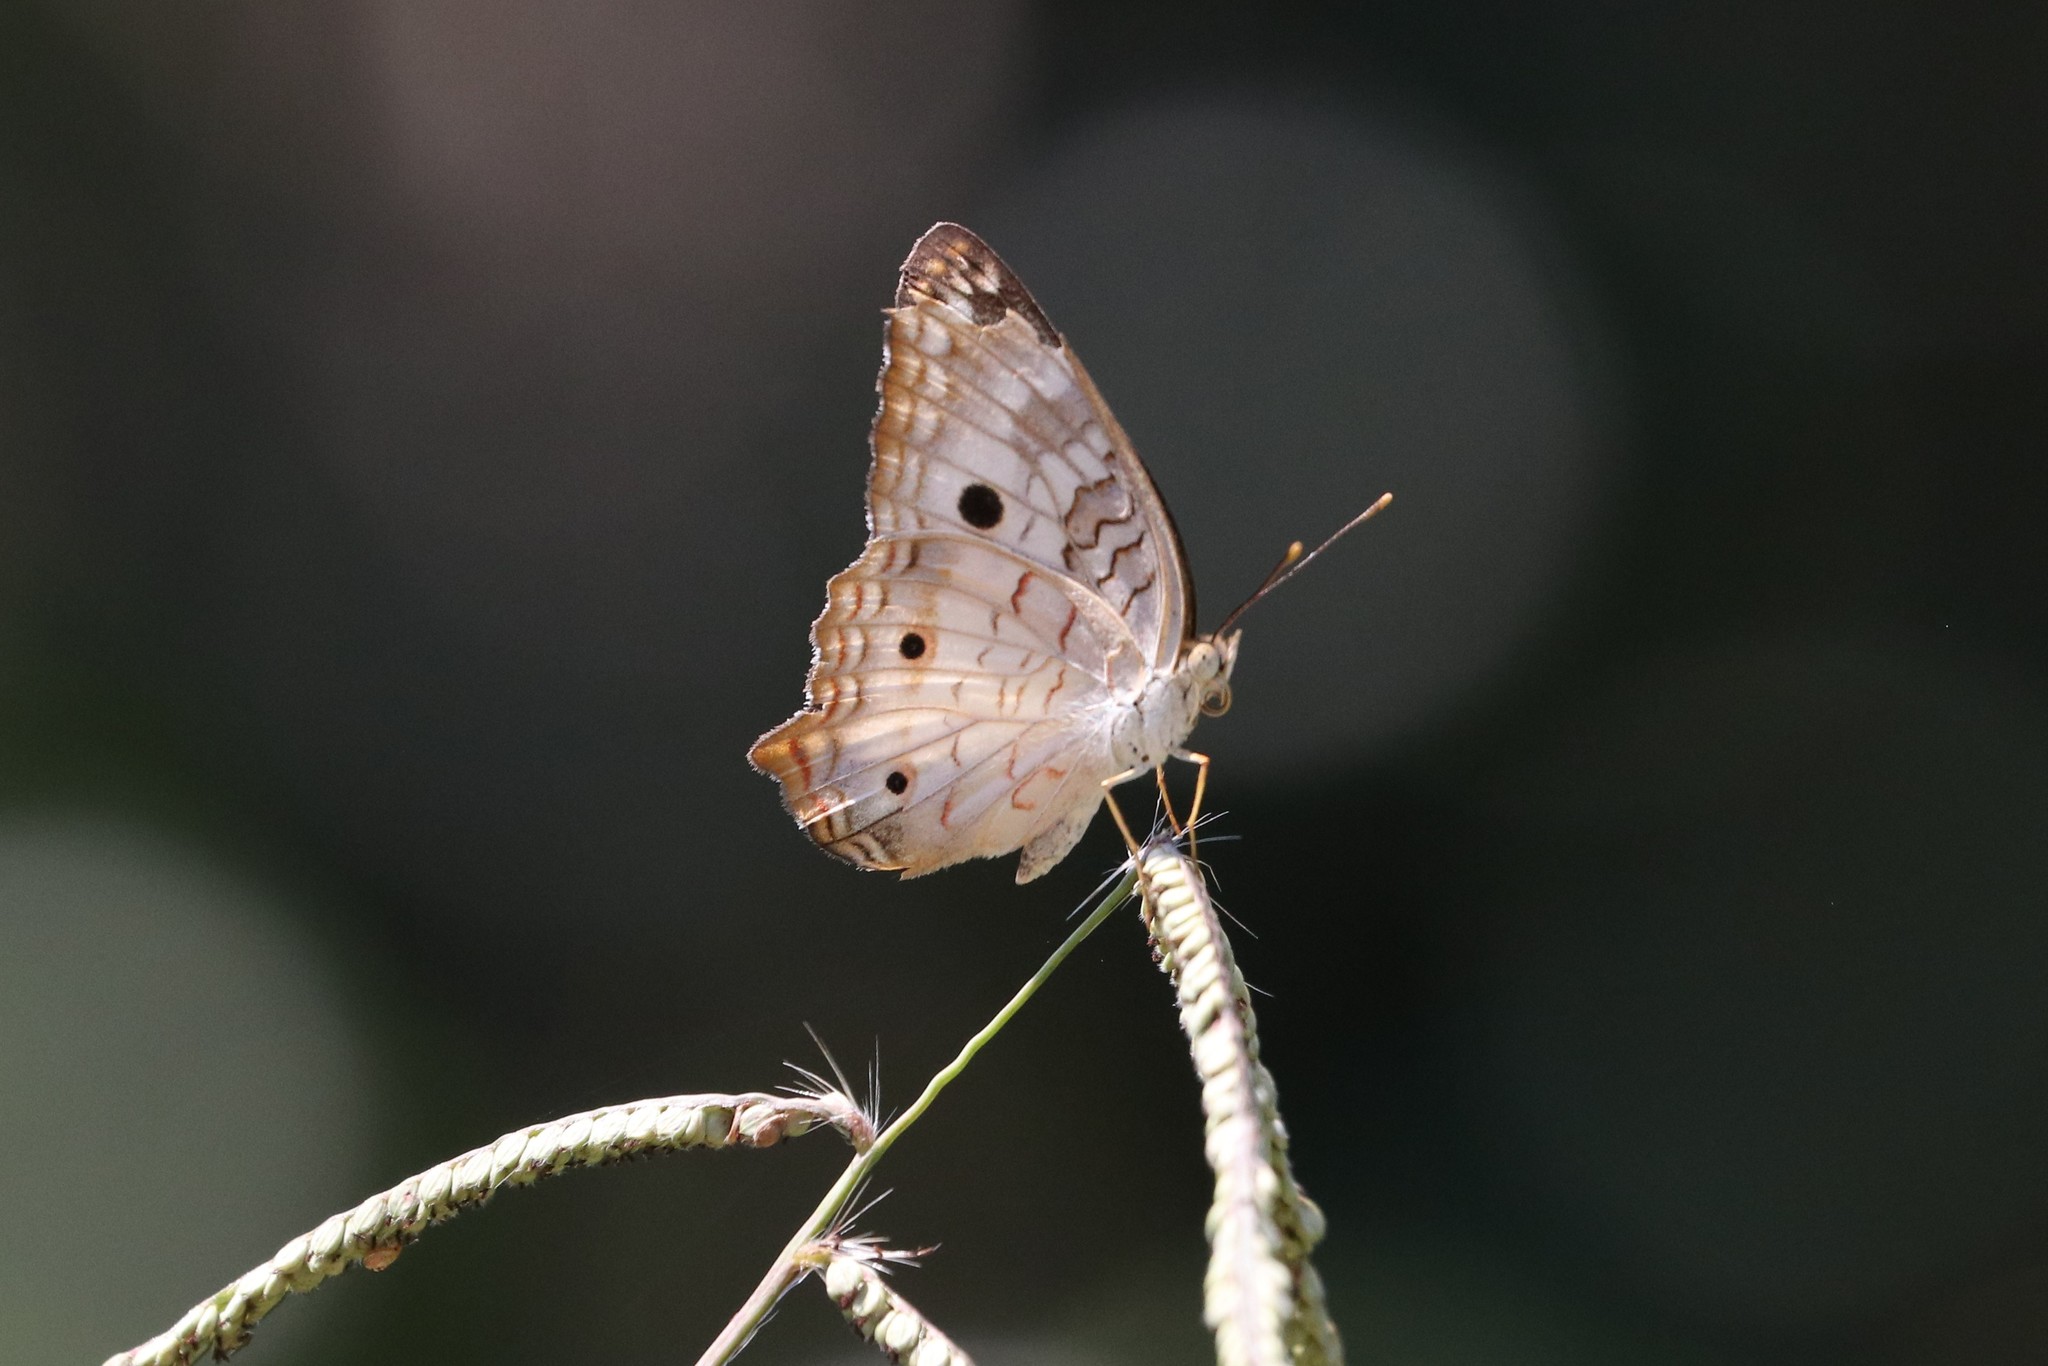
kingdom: Animalia
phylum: Arthropoda
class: Insecta
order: Lepidoptera
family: Nymphalidae
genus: Anartia
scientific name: Anartia jatrophae
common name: White peacock
